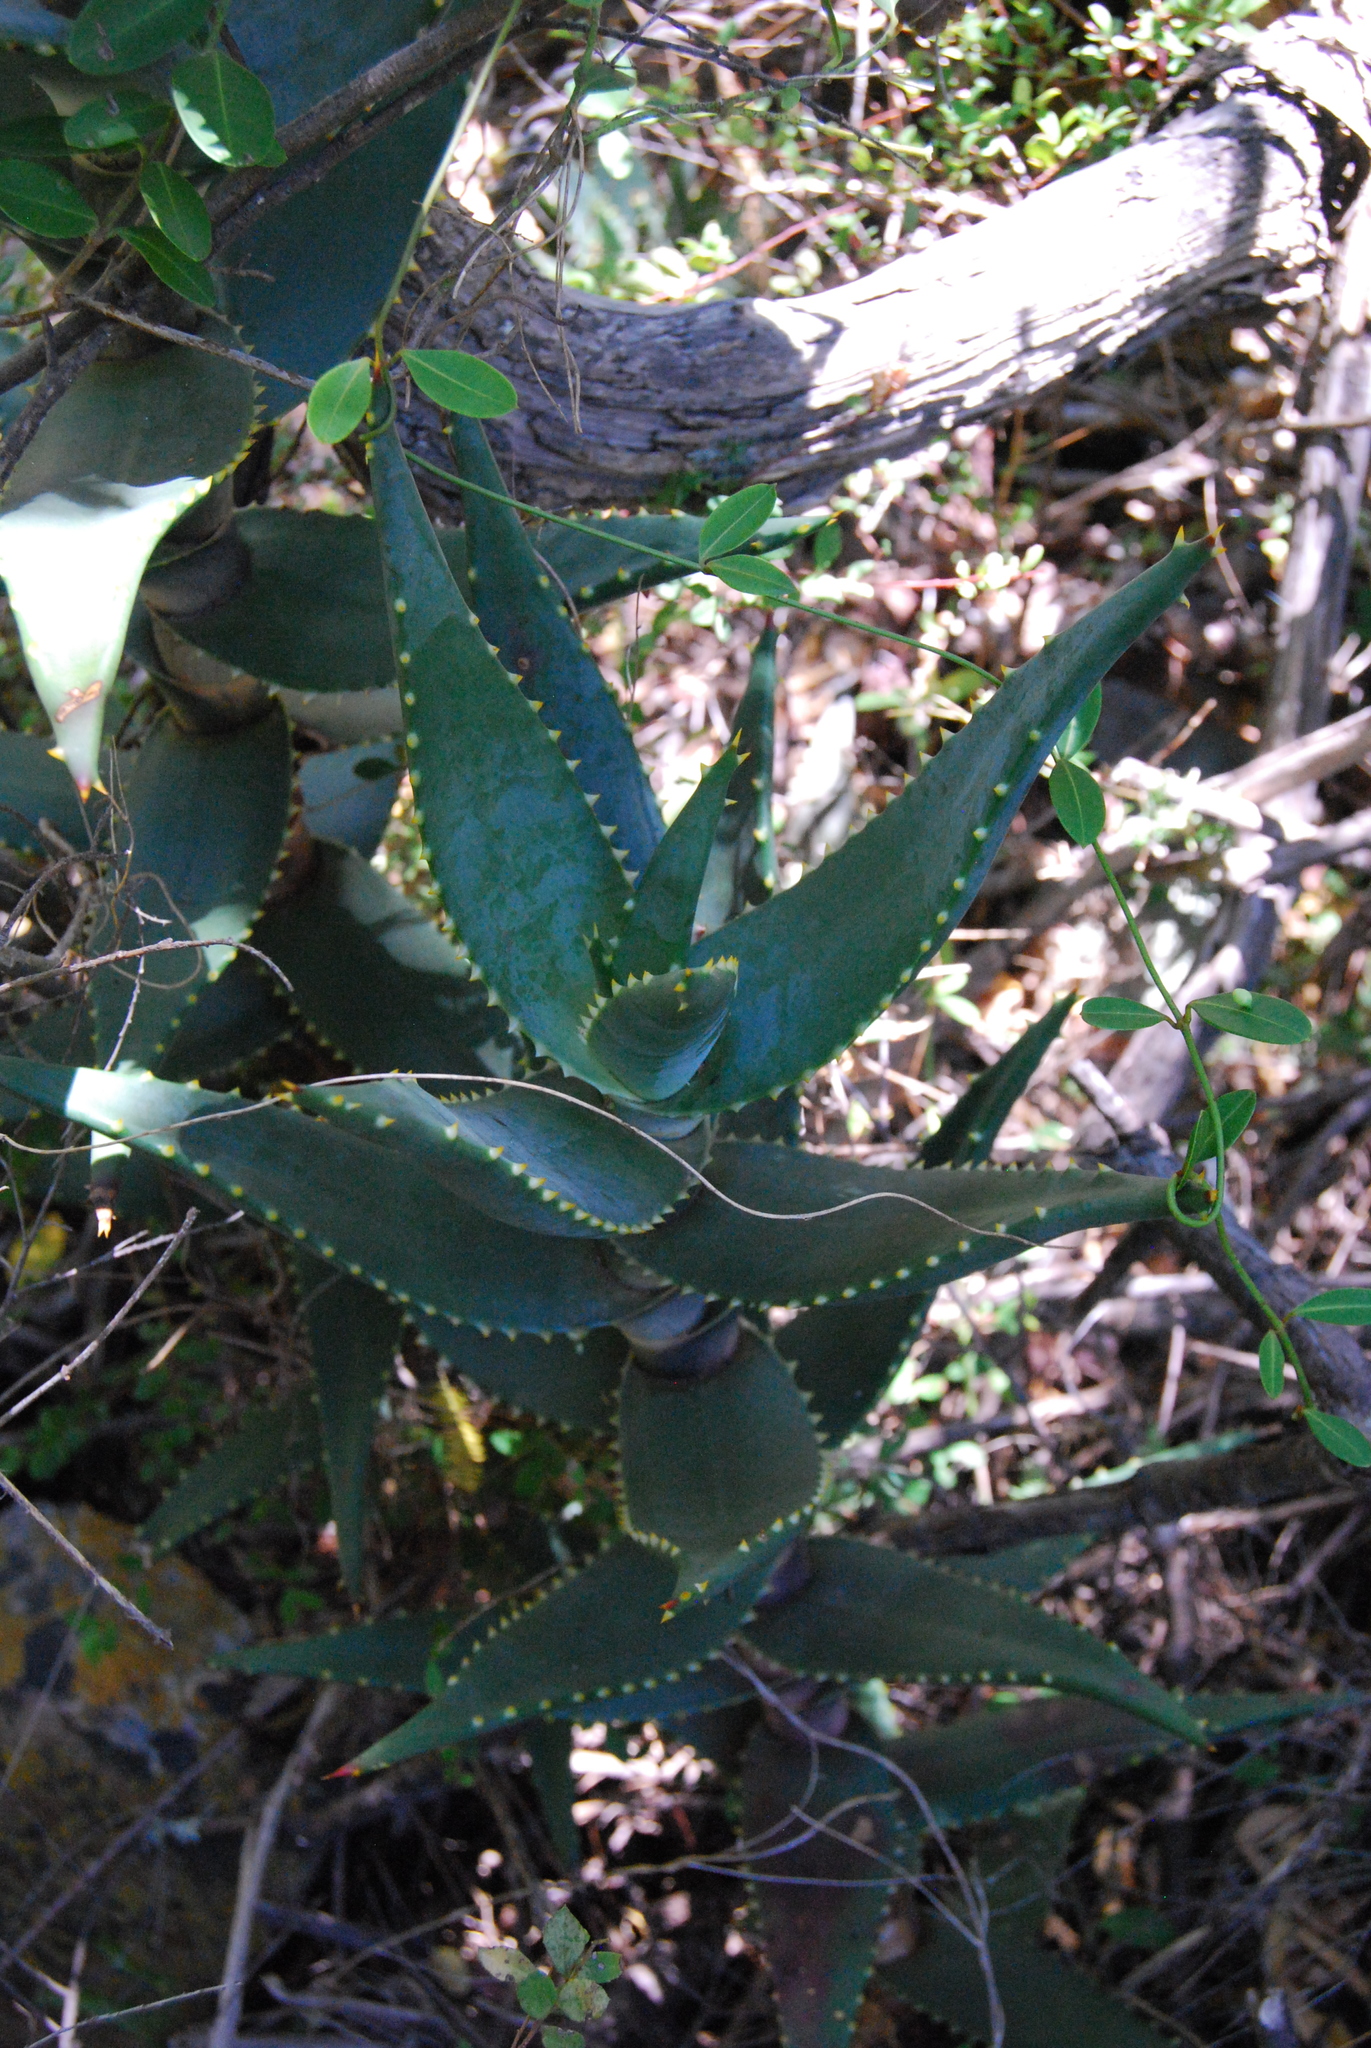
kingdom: Plantae
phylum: Tracheophyta
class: Liliopsida
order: Asparagales
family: Asphodelaceae
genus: Aloe
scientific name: Aloe perfoliata
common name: Mitra aloe
